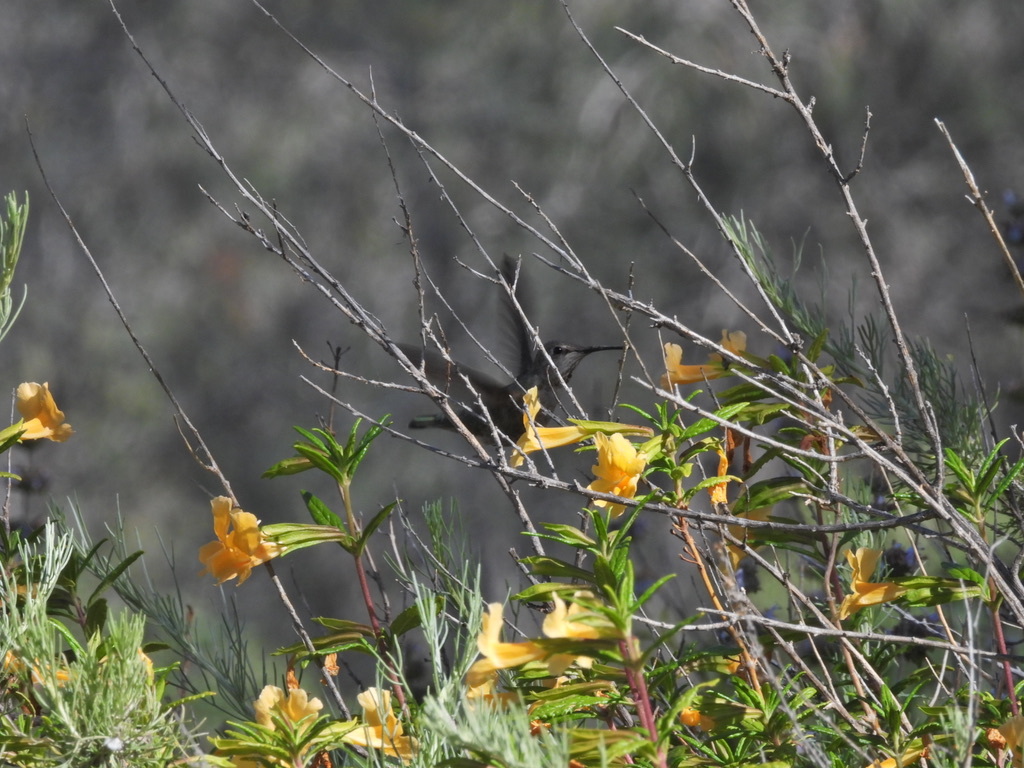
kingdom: Animalia
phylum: Chordata
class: Aves
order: Apodiformes
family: Trochilidae
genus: Calypte
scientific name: Calypte anna
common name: Anna's hummingbird
